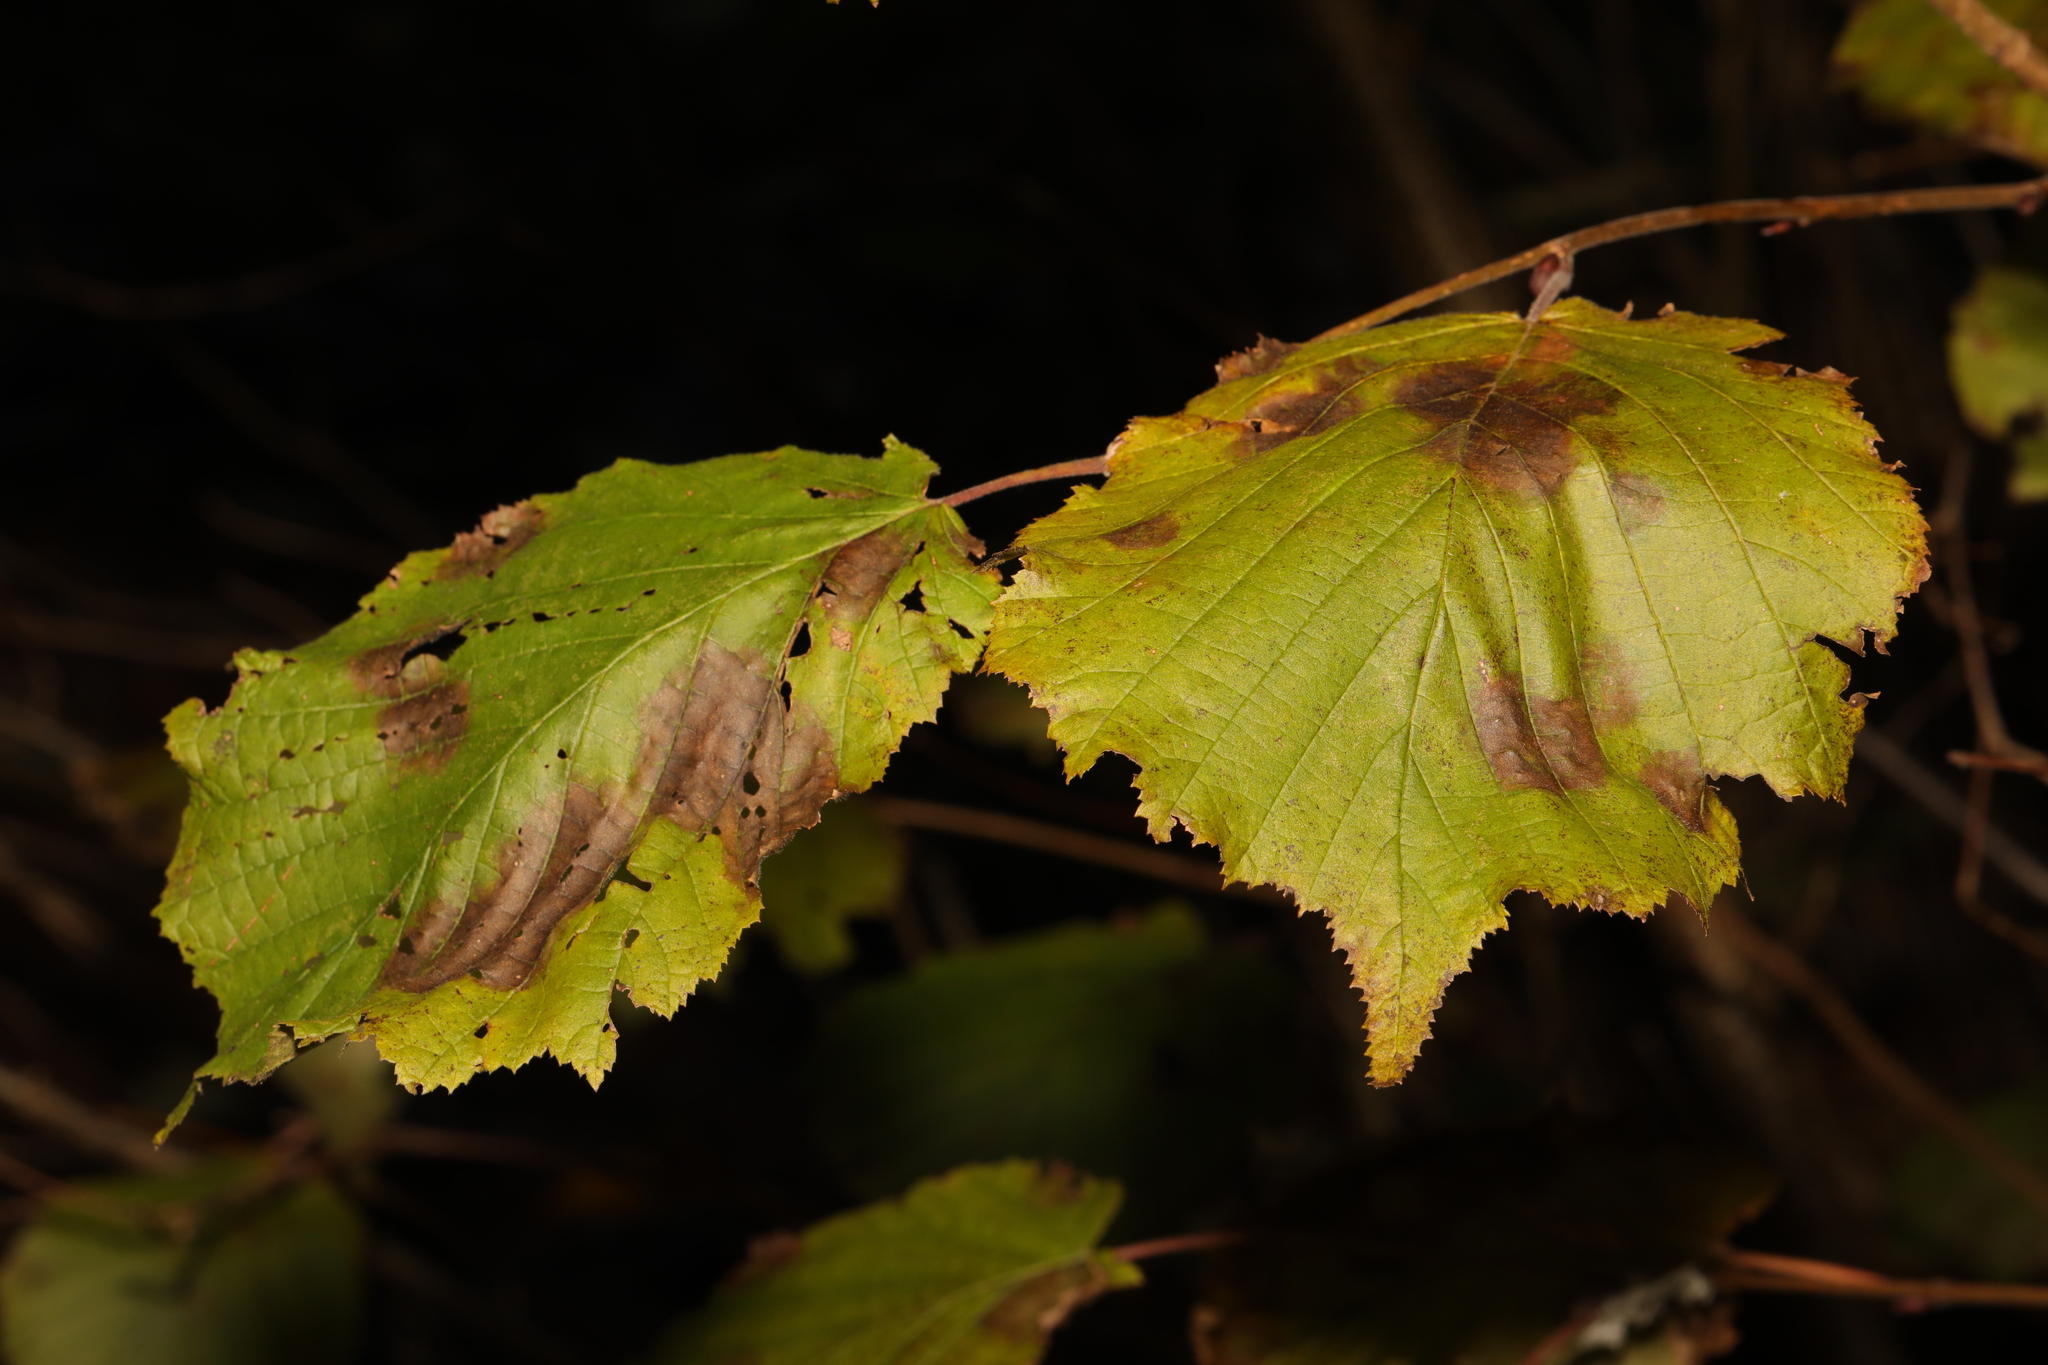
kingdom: Plantae
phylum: Tracheophyta
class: Magnoliopsida
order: Fagales
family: Betulaceae
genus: Corylus
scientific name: Corylus avellana
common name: European hazel
